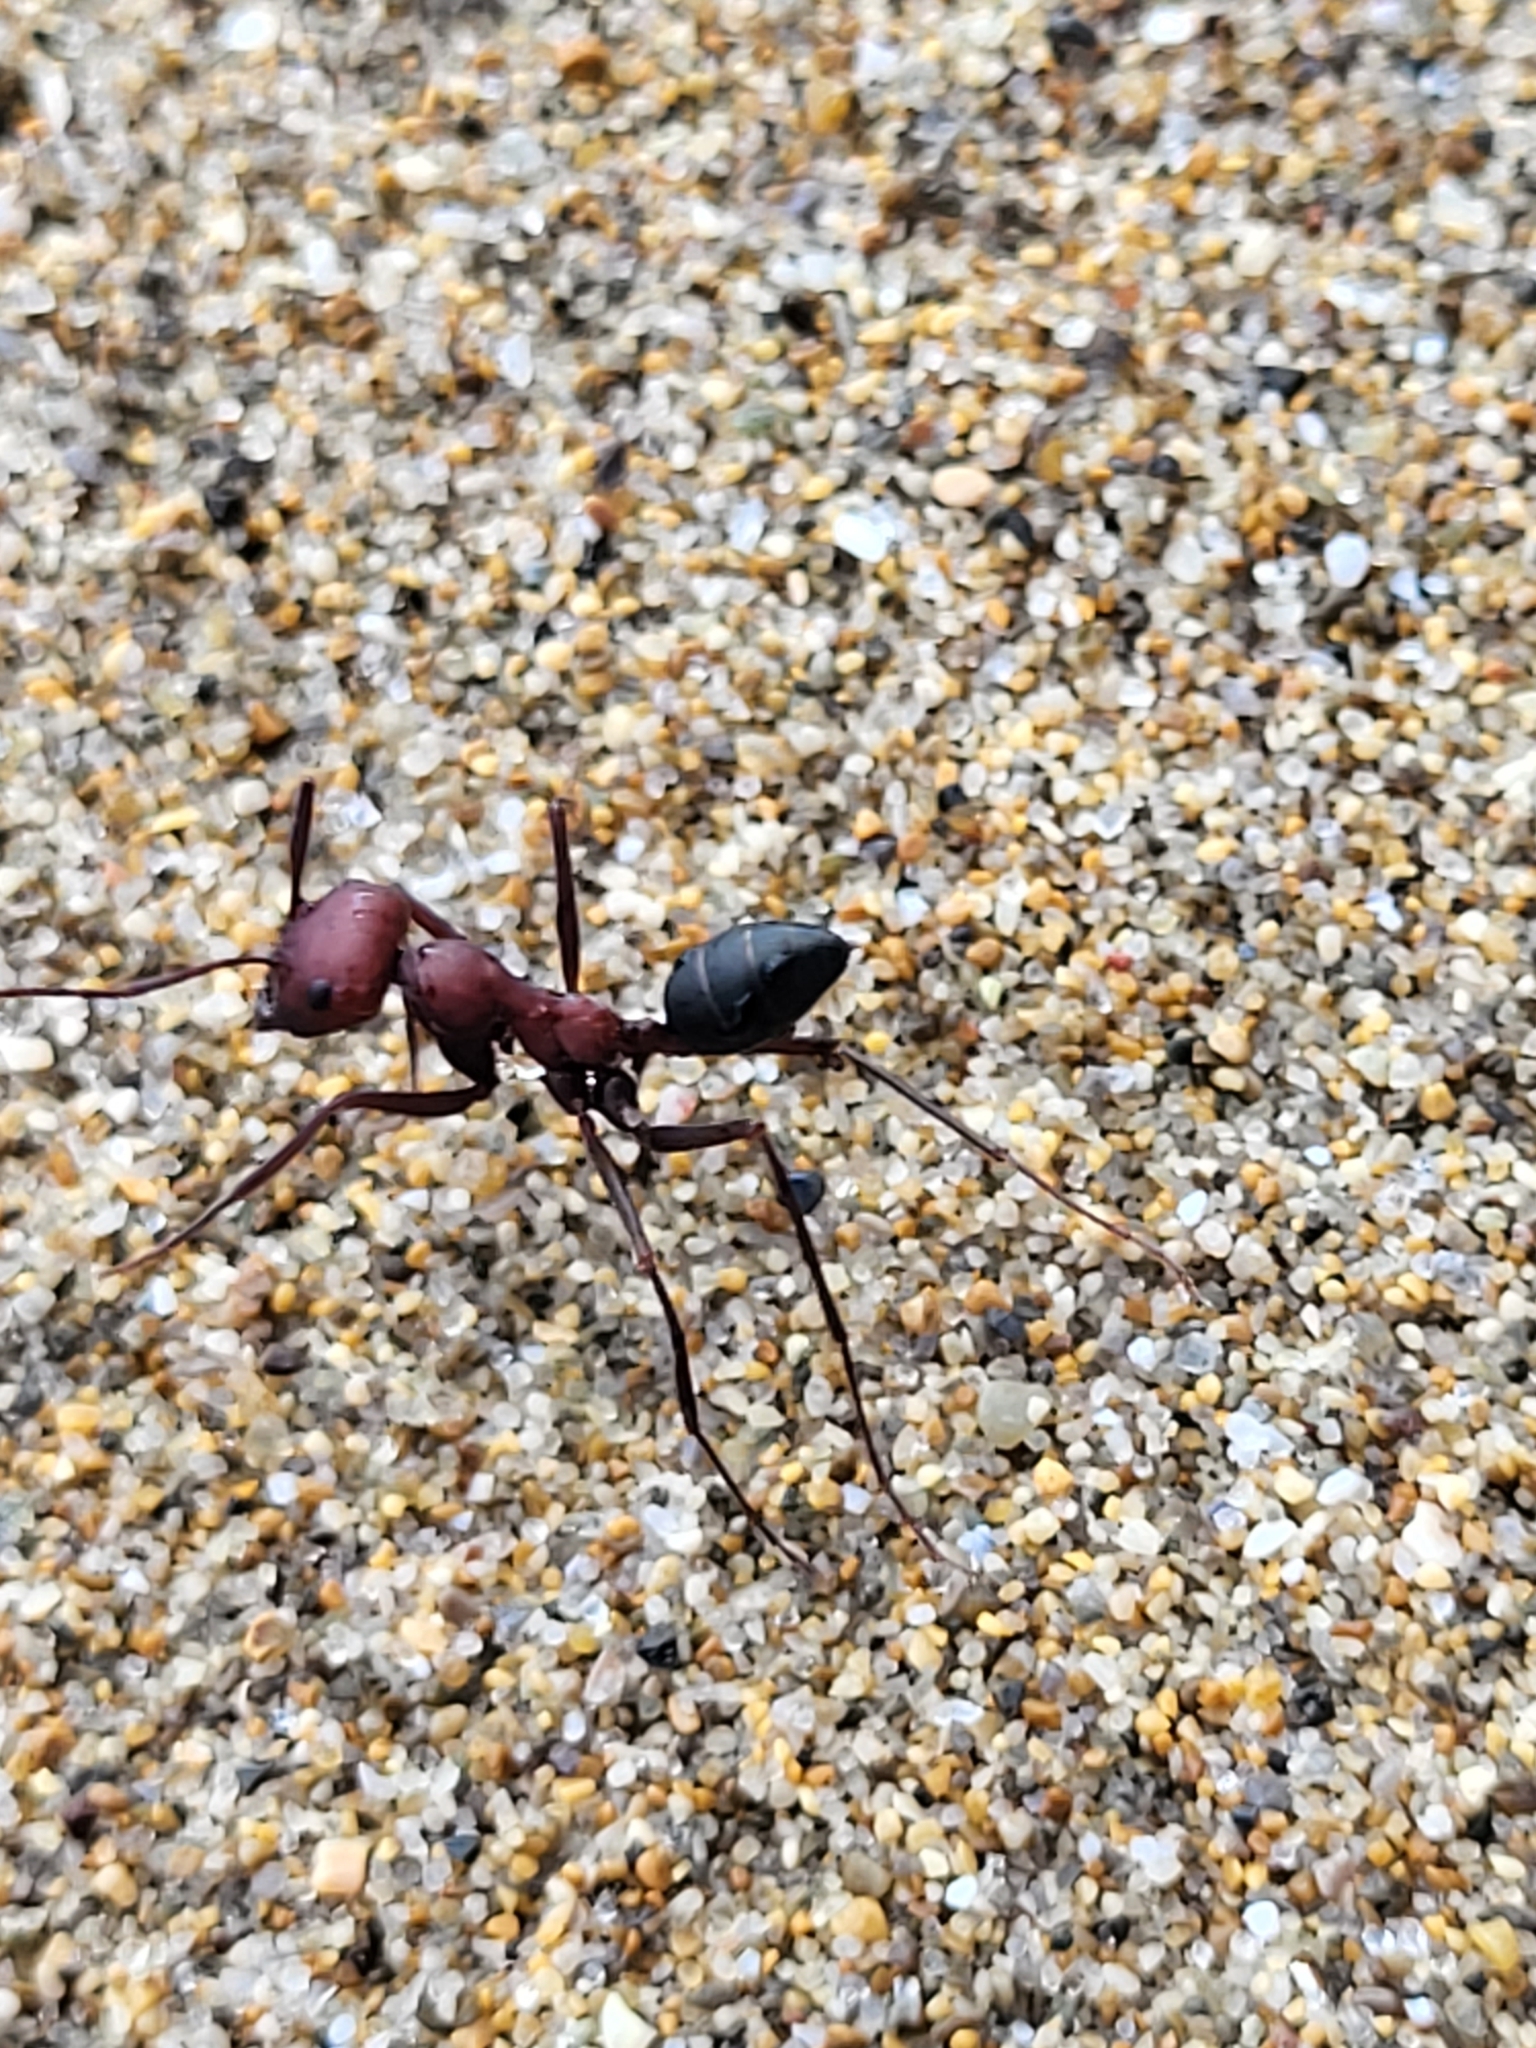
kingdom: Animalia
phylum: Arthropoda
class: Insecta
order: Hymenoptera
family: Formicidae
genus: Cataglyphis
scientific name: Cataglyphis nodus
